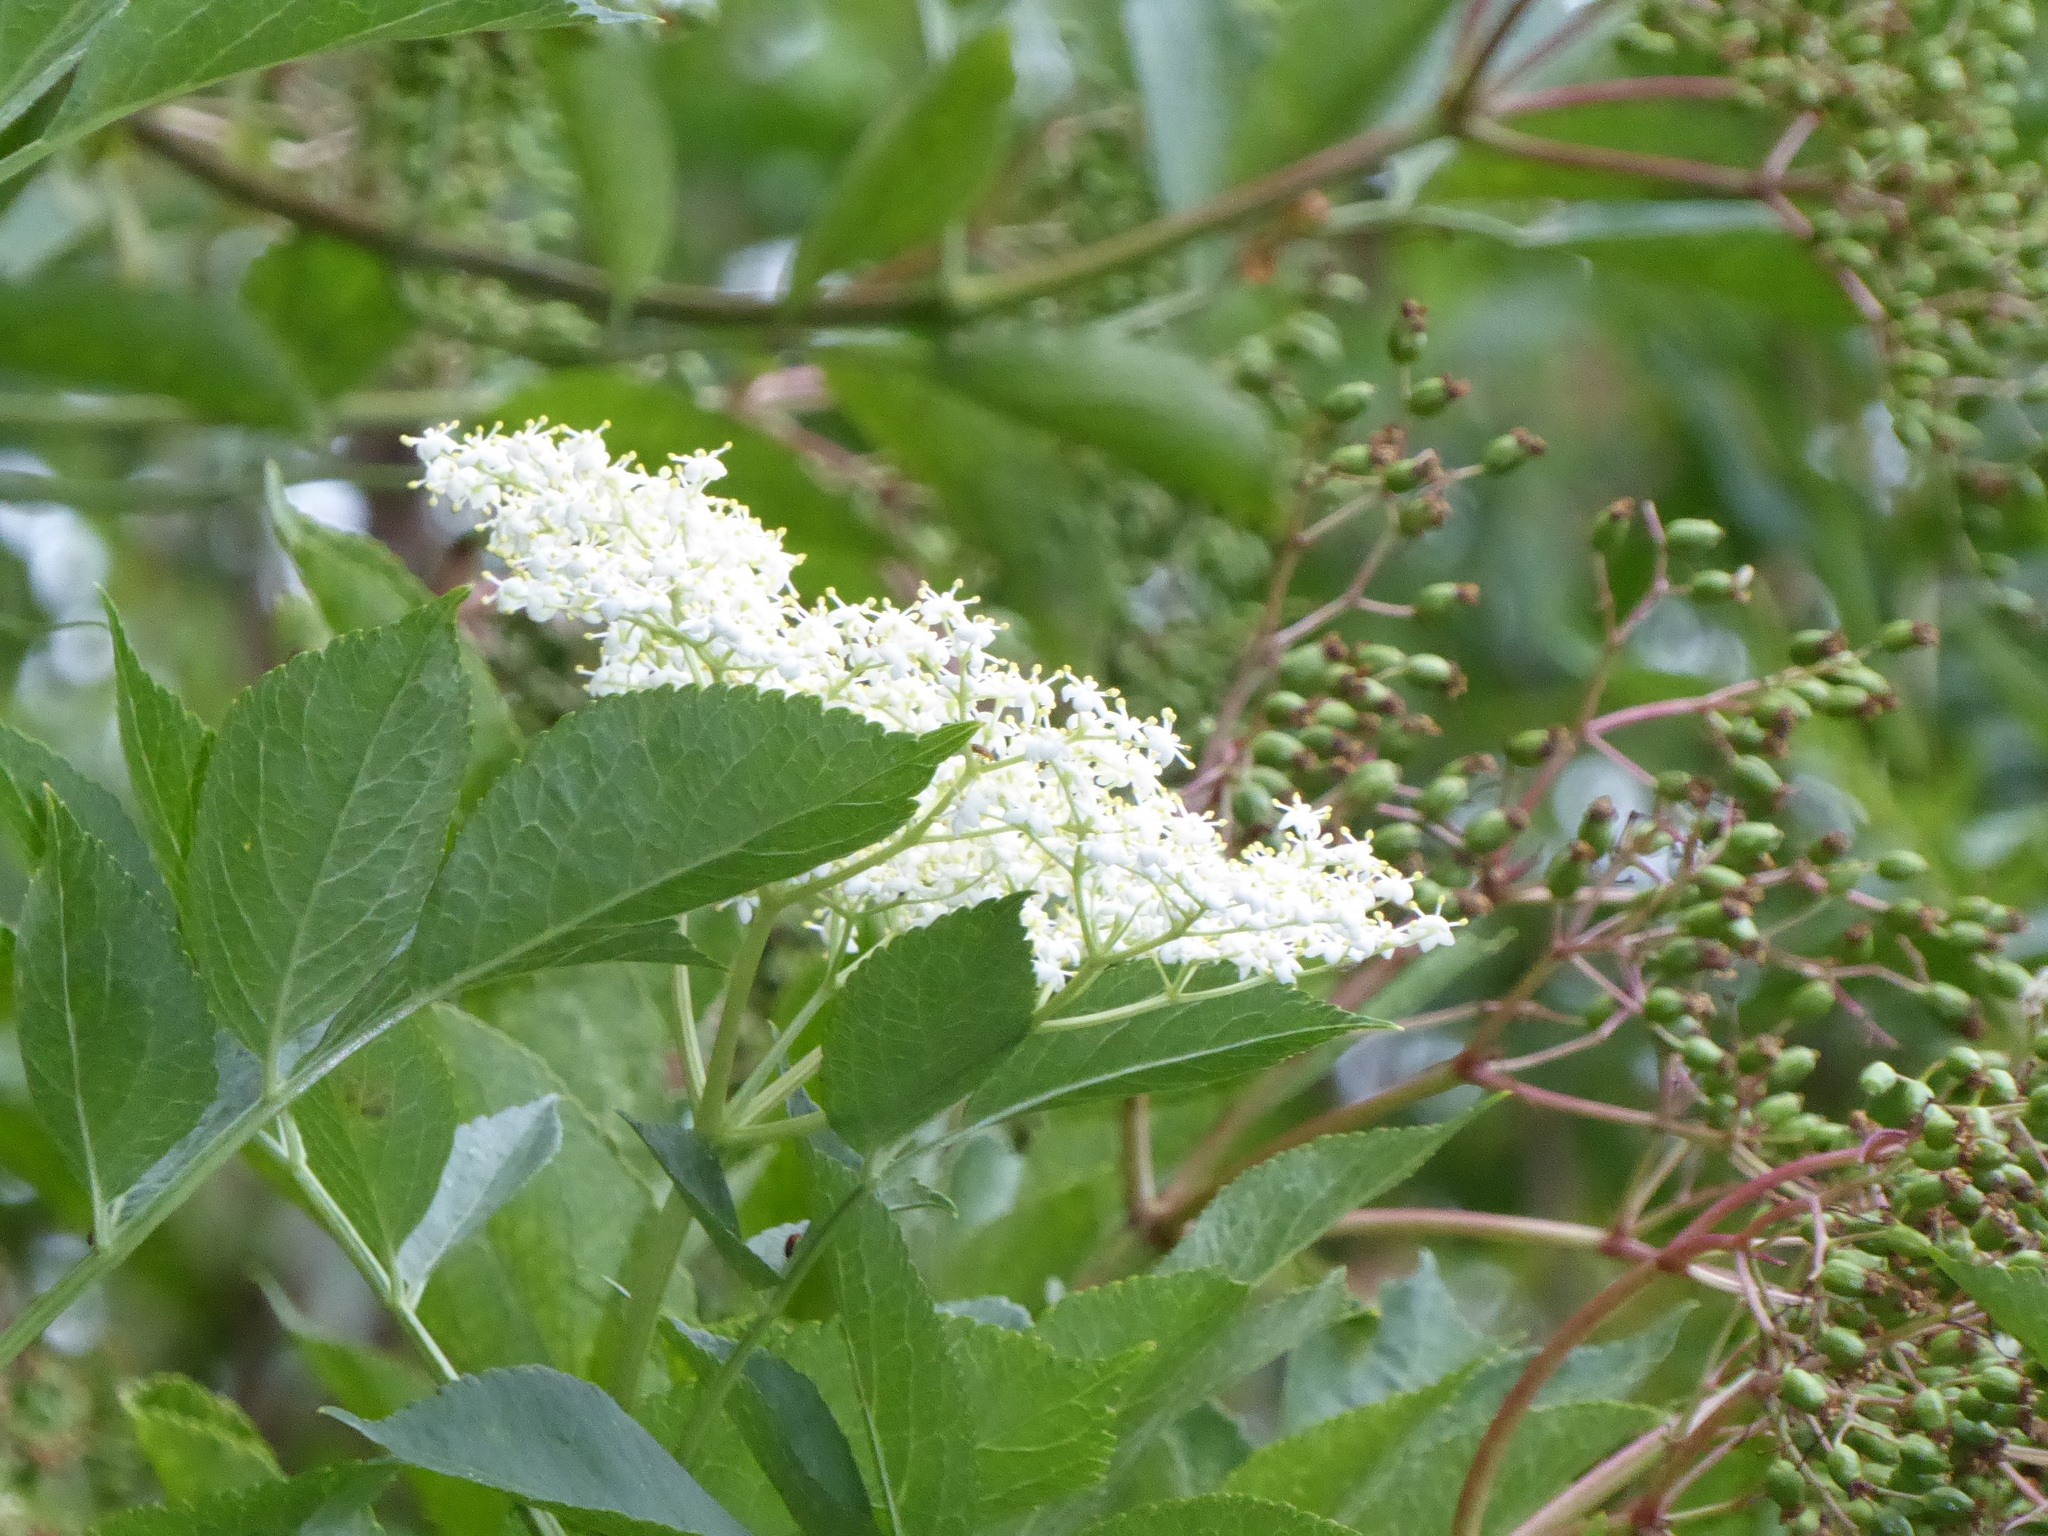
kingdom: Plantae
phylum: Tracheophyta
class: Magnoliopsida
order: Dipsacales
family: Viburnaceae
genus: Sambucus
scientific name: Sambucus nigra
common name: Elder
